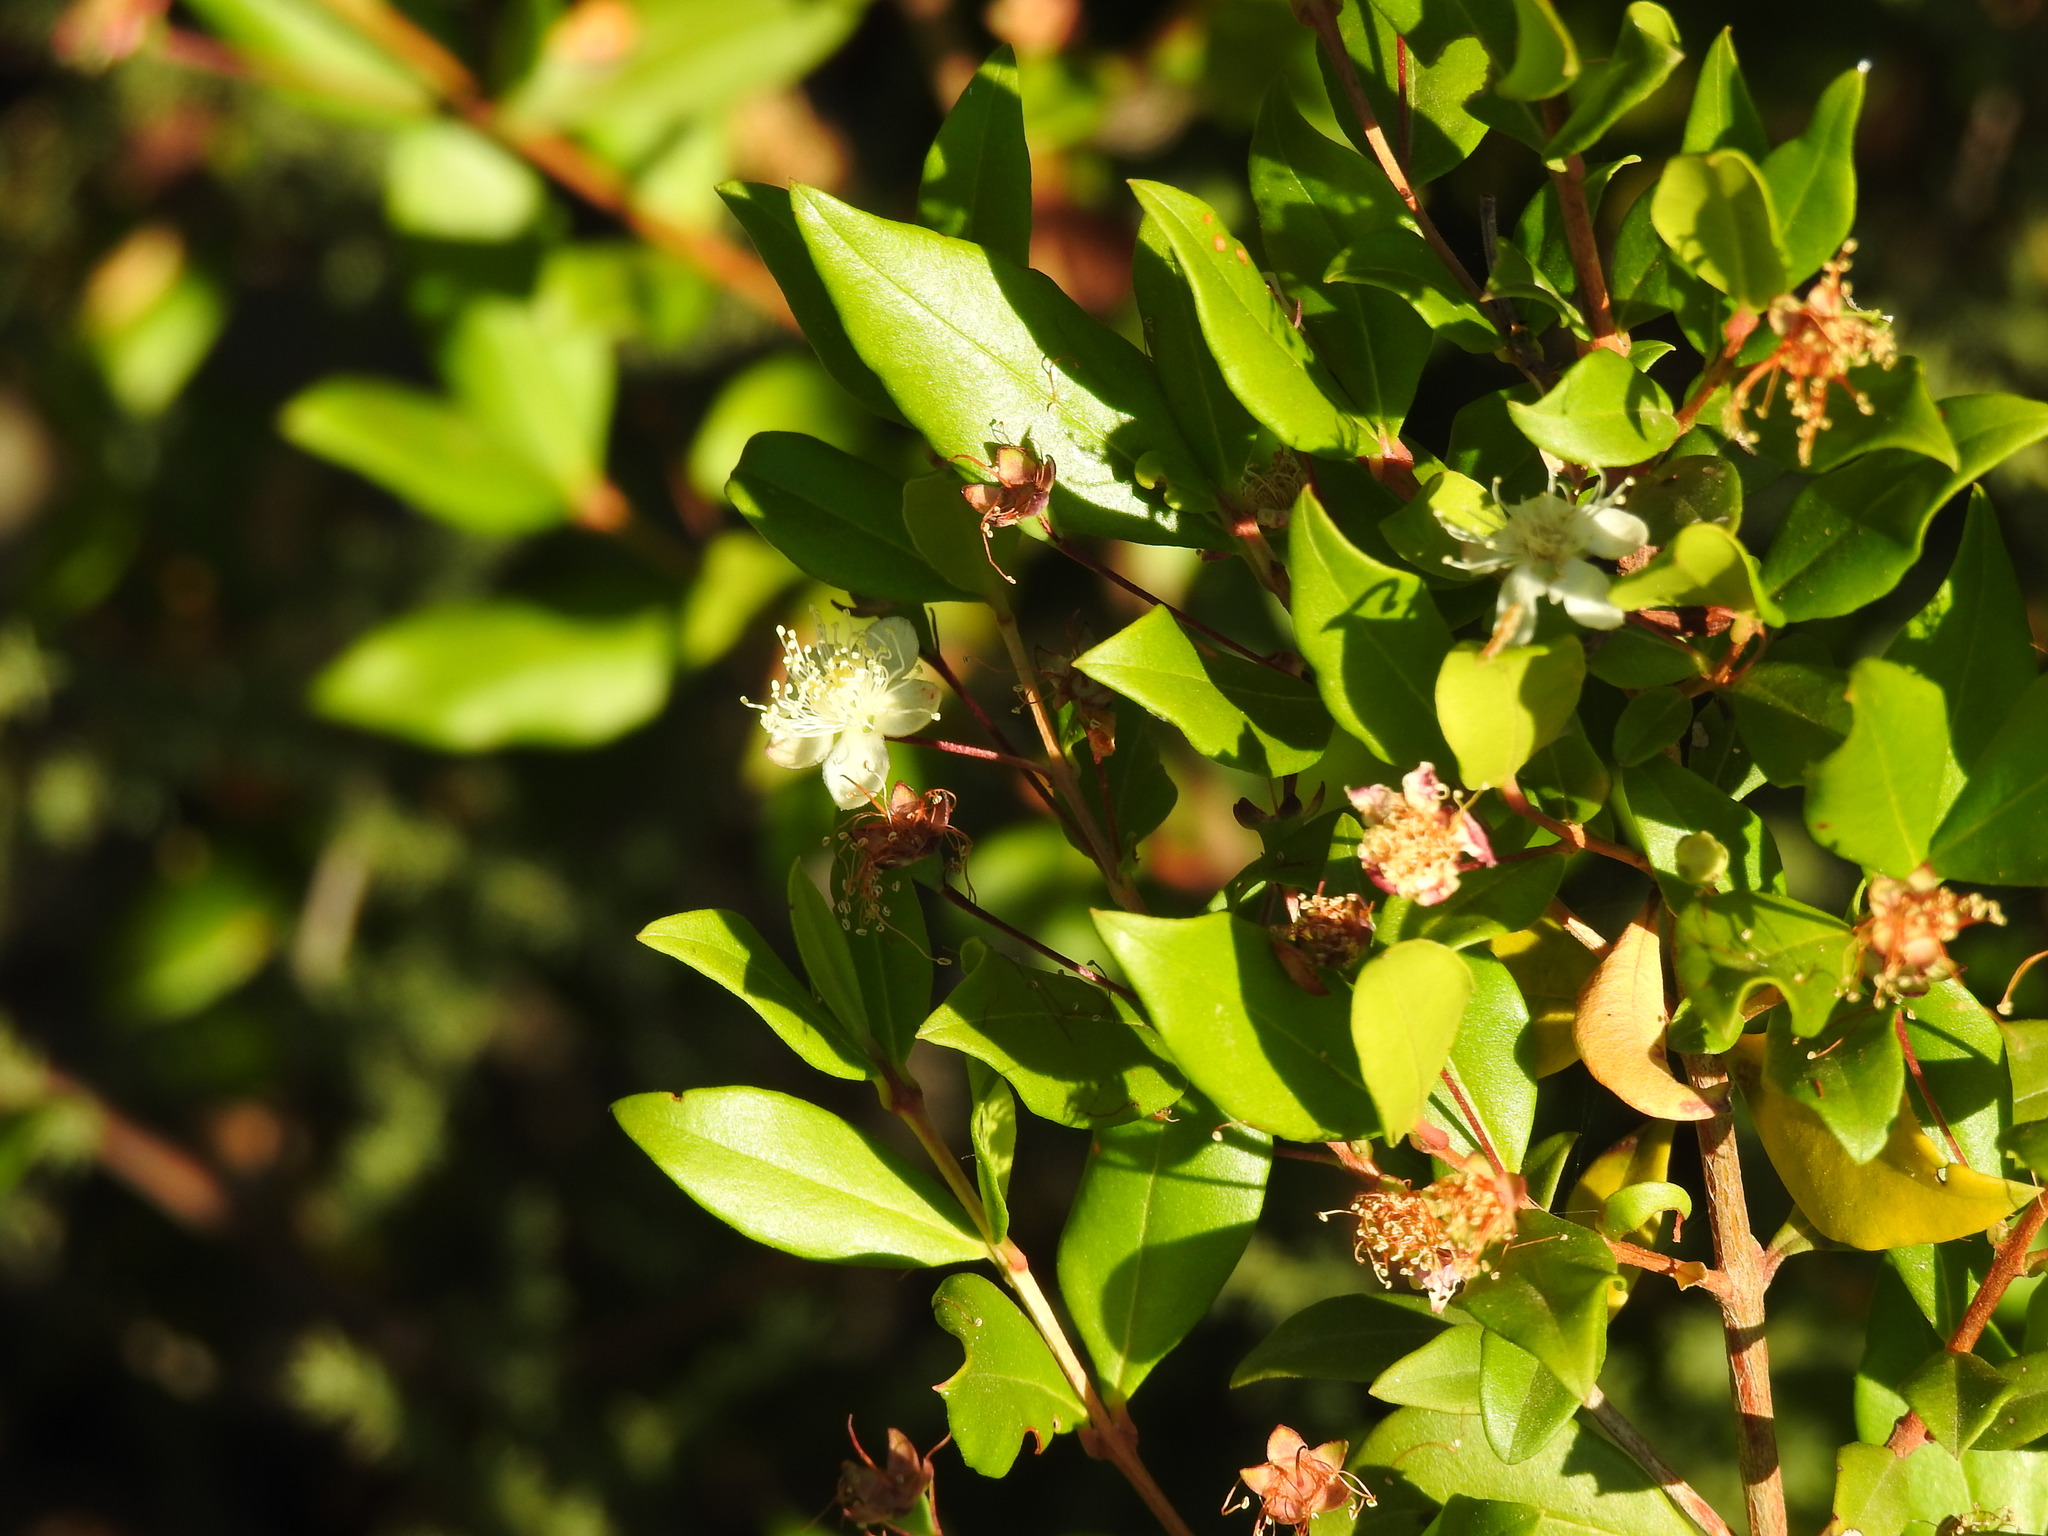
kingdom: Plantae
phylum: Tracheophyta
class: Magnoliopsida
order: Myrtales
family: Myrtaceae
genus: Myrtus
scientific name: Myrtus communis
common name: Myrtle
